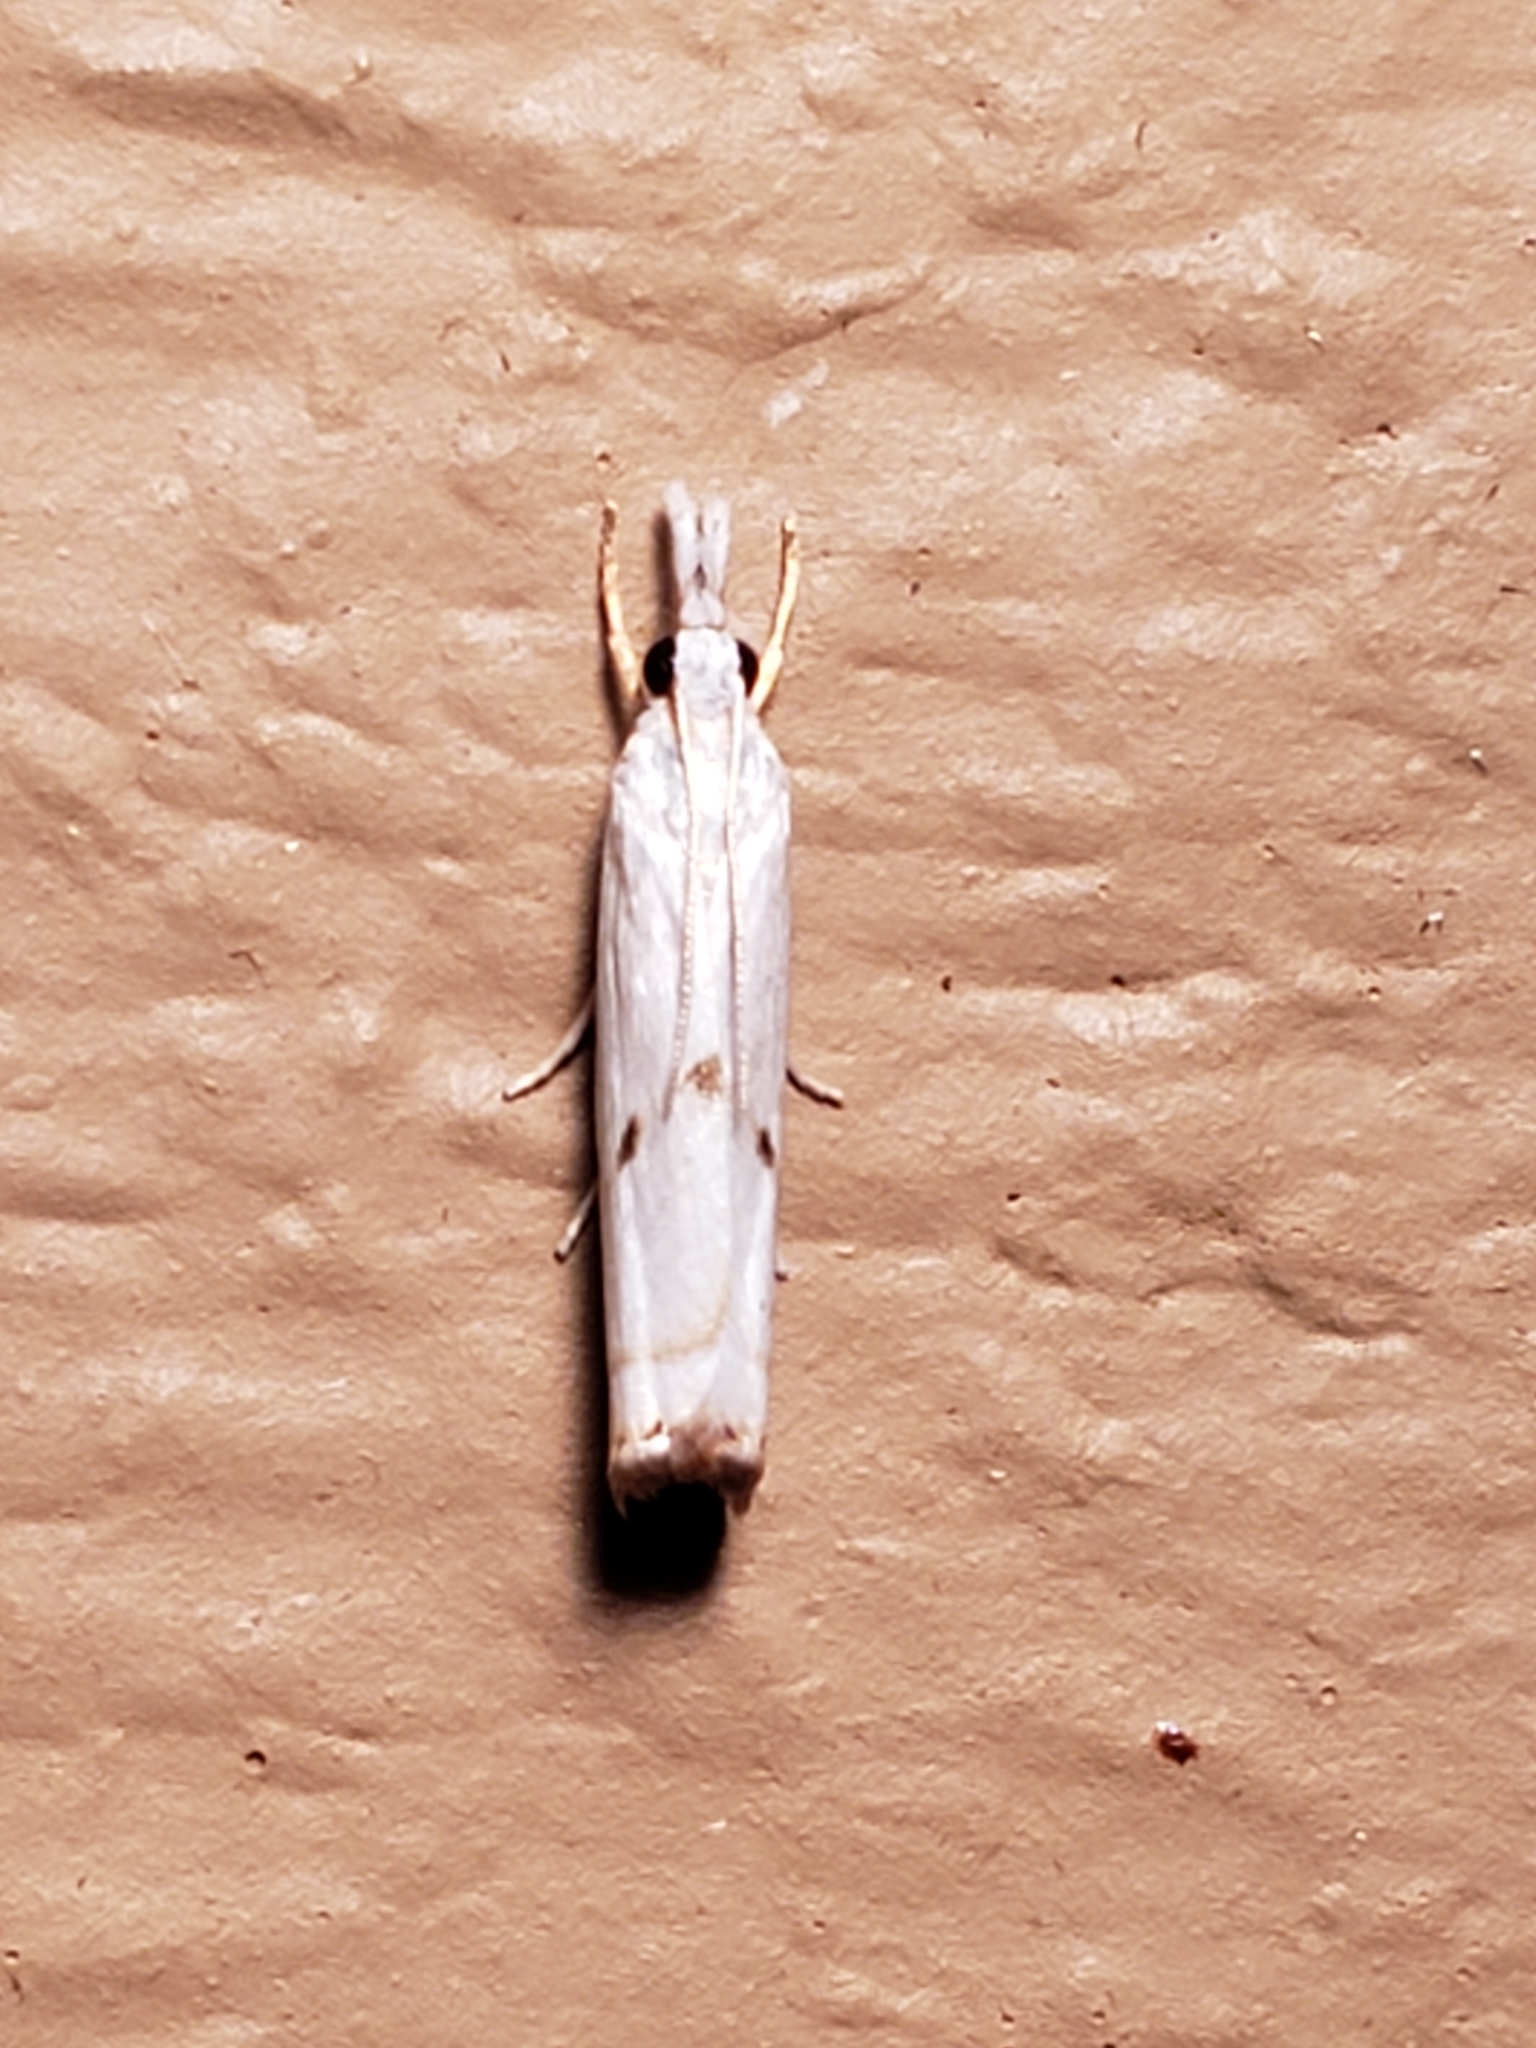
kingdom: Animalia
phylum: Arthropoda
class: Insecta
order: Lepidoptera
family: Crambidae
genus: Microcrambus
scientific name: Microcrambus biguttellus
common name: Gold-stripe grass-veneer moth
